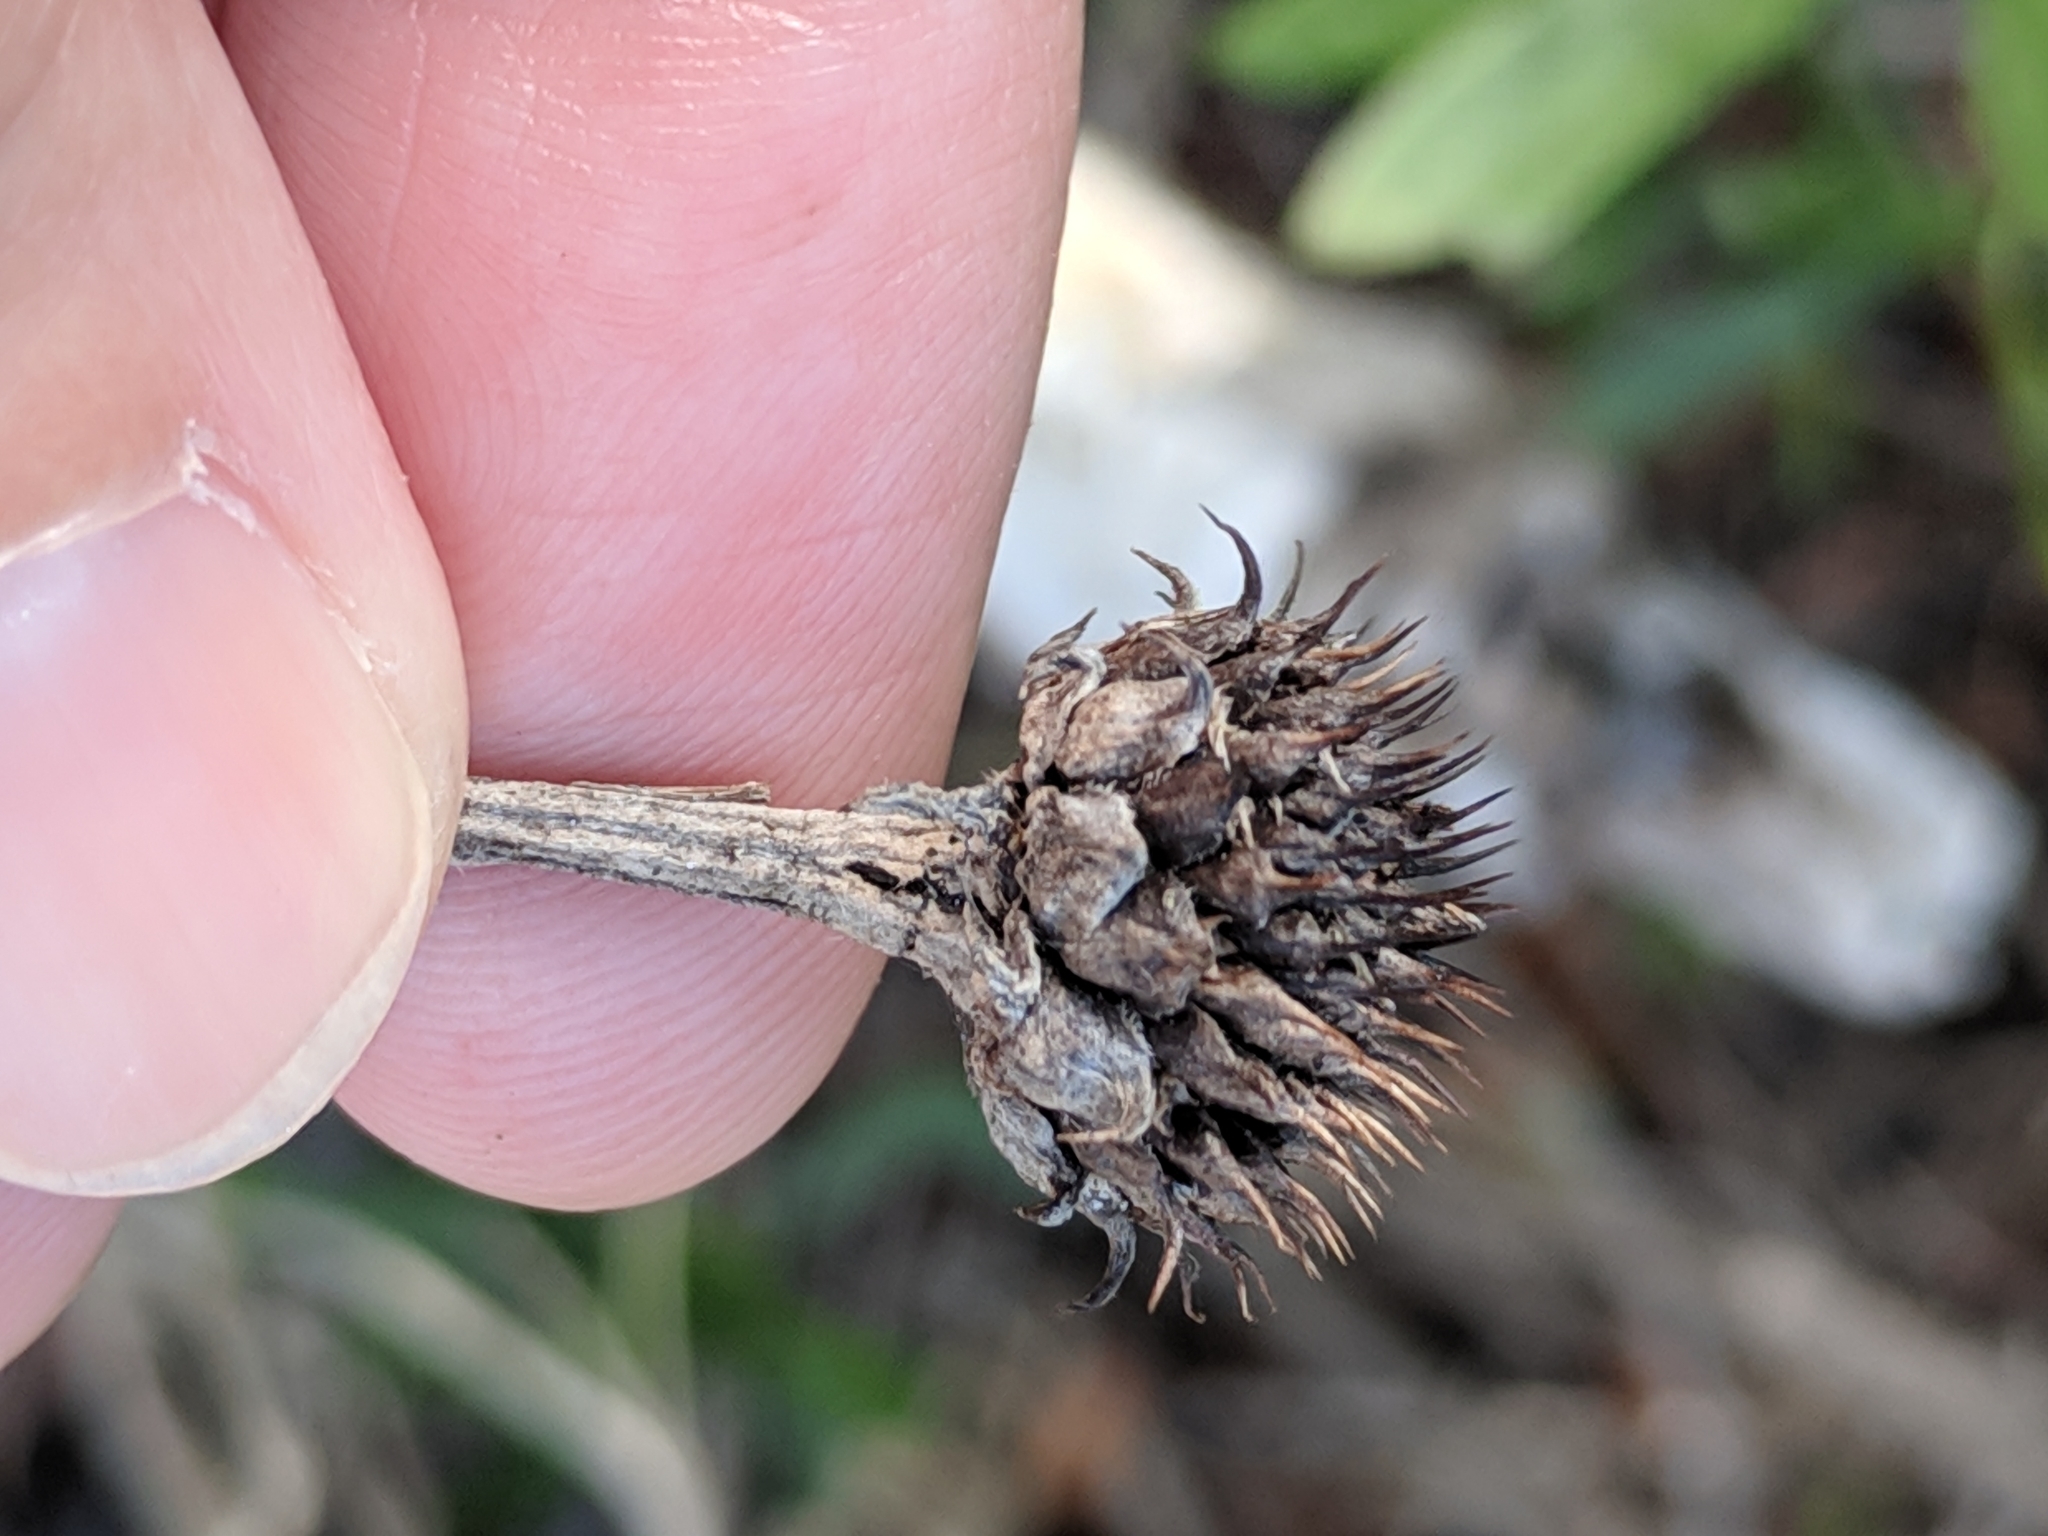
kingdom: Plantae
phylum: Tracheophyta
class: Magnoliopsida
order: Asterales
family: Asteraceae
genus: Borrichia
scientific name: Borrichia frutescens
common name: Sea oxeye
